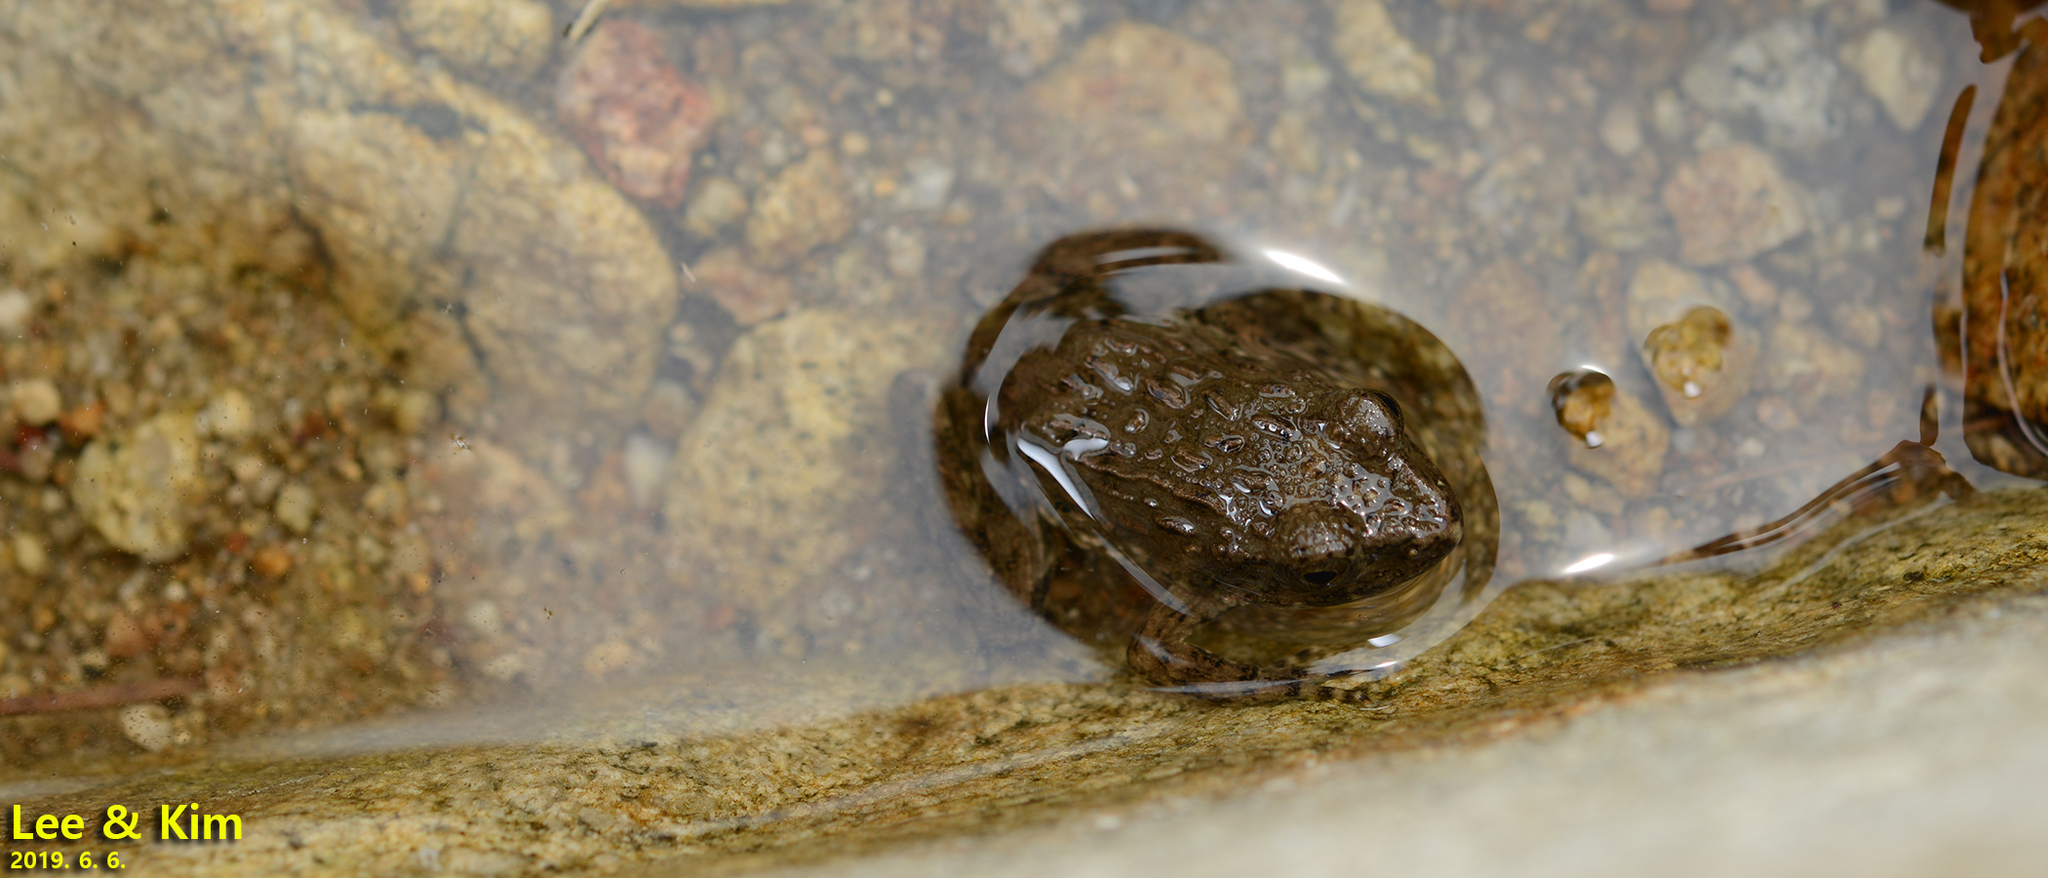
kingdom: Animalia
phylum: Chordata
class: Amphibia
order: Anura
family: Ranidae
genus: Glandirana
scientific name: Glandirana emeljanovi
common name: Northeast china rough-skinned frog
